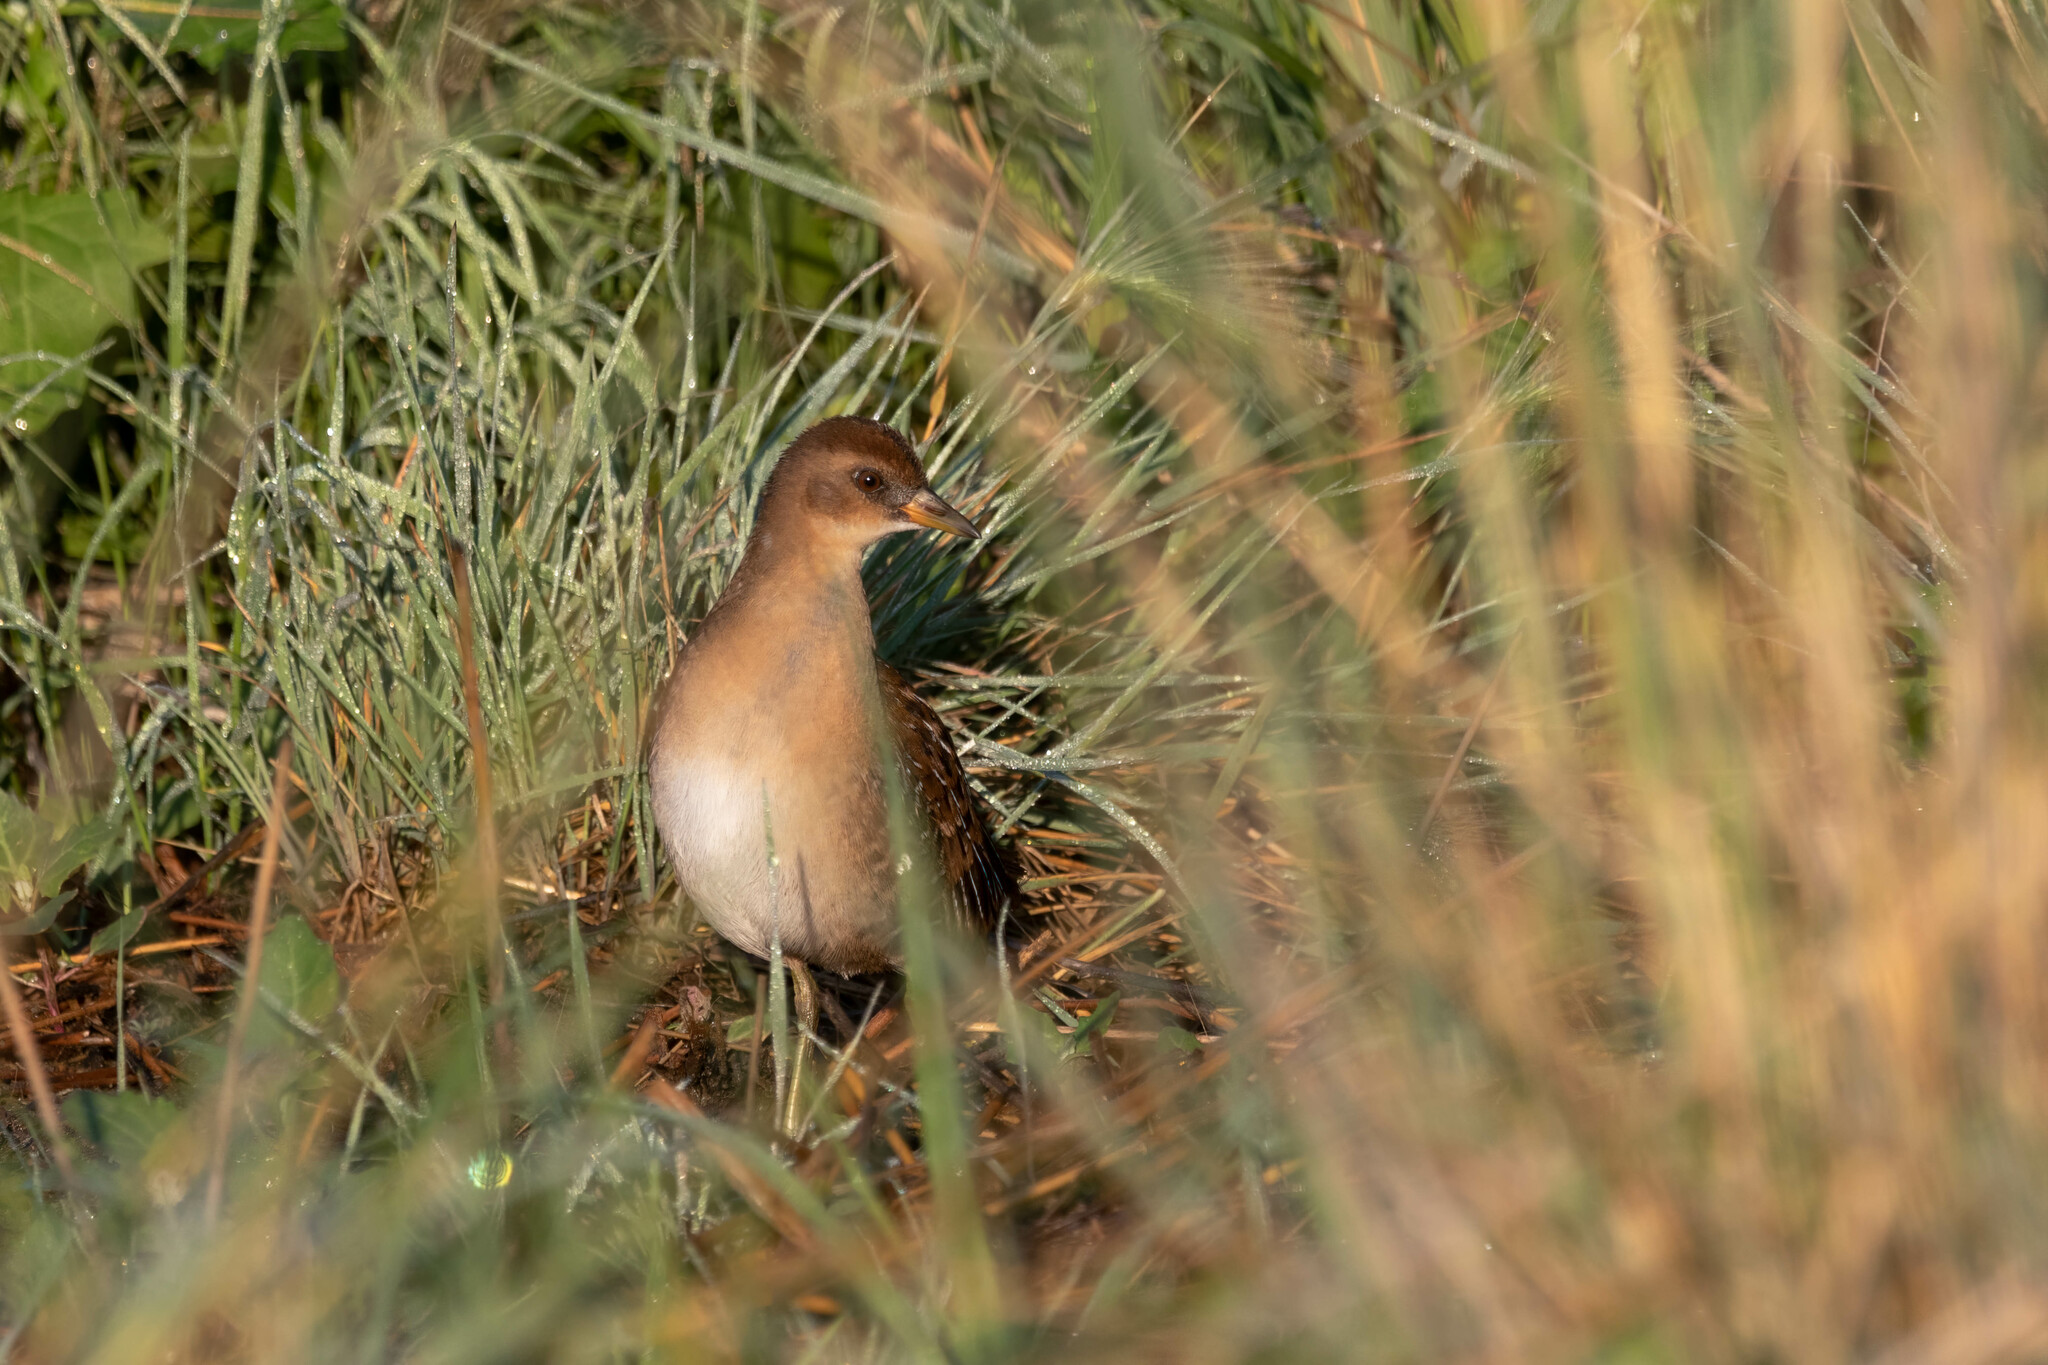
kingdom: Animalia
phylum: Chordata
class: Aves
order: Gruiformes
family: Rallidae
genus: Porzana
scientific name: Porzana carolina
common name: Sora
